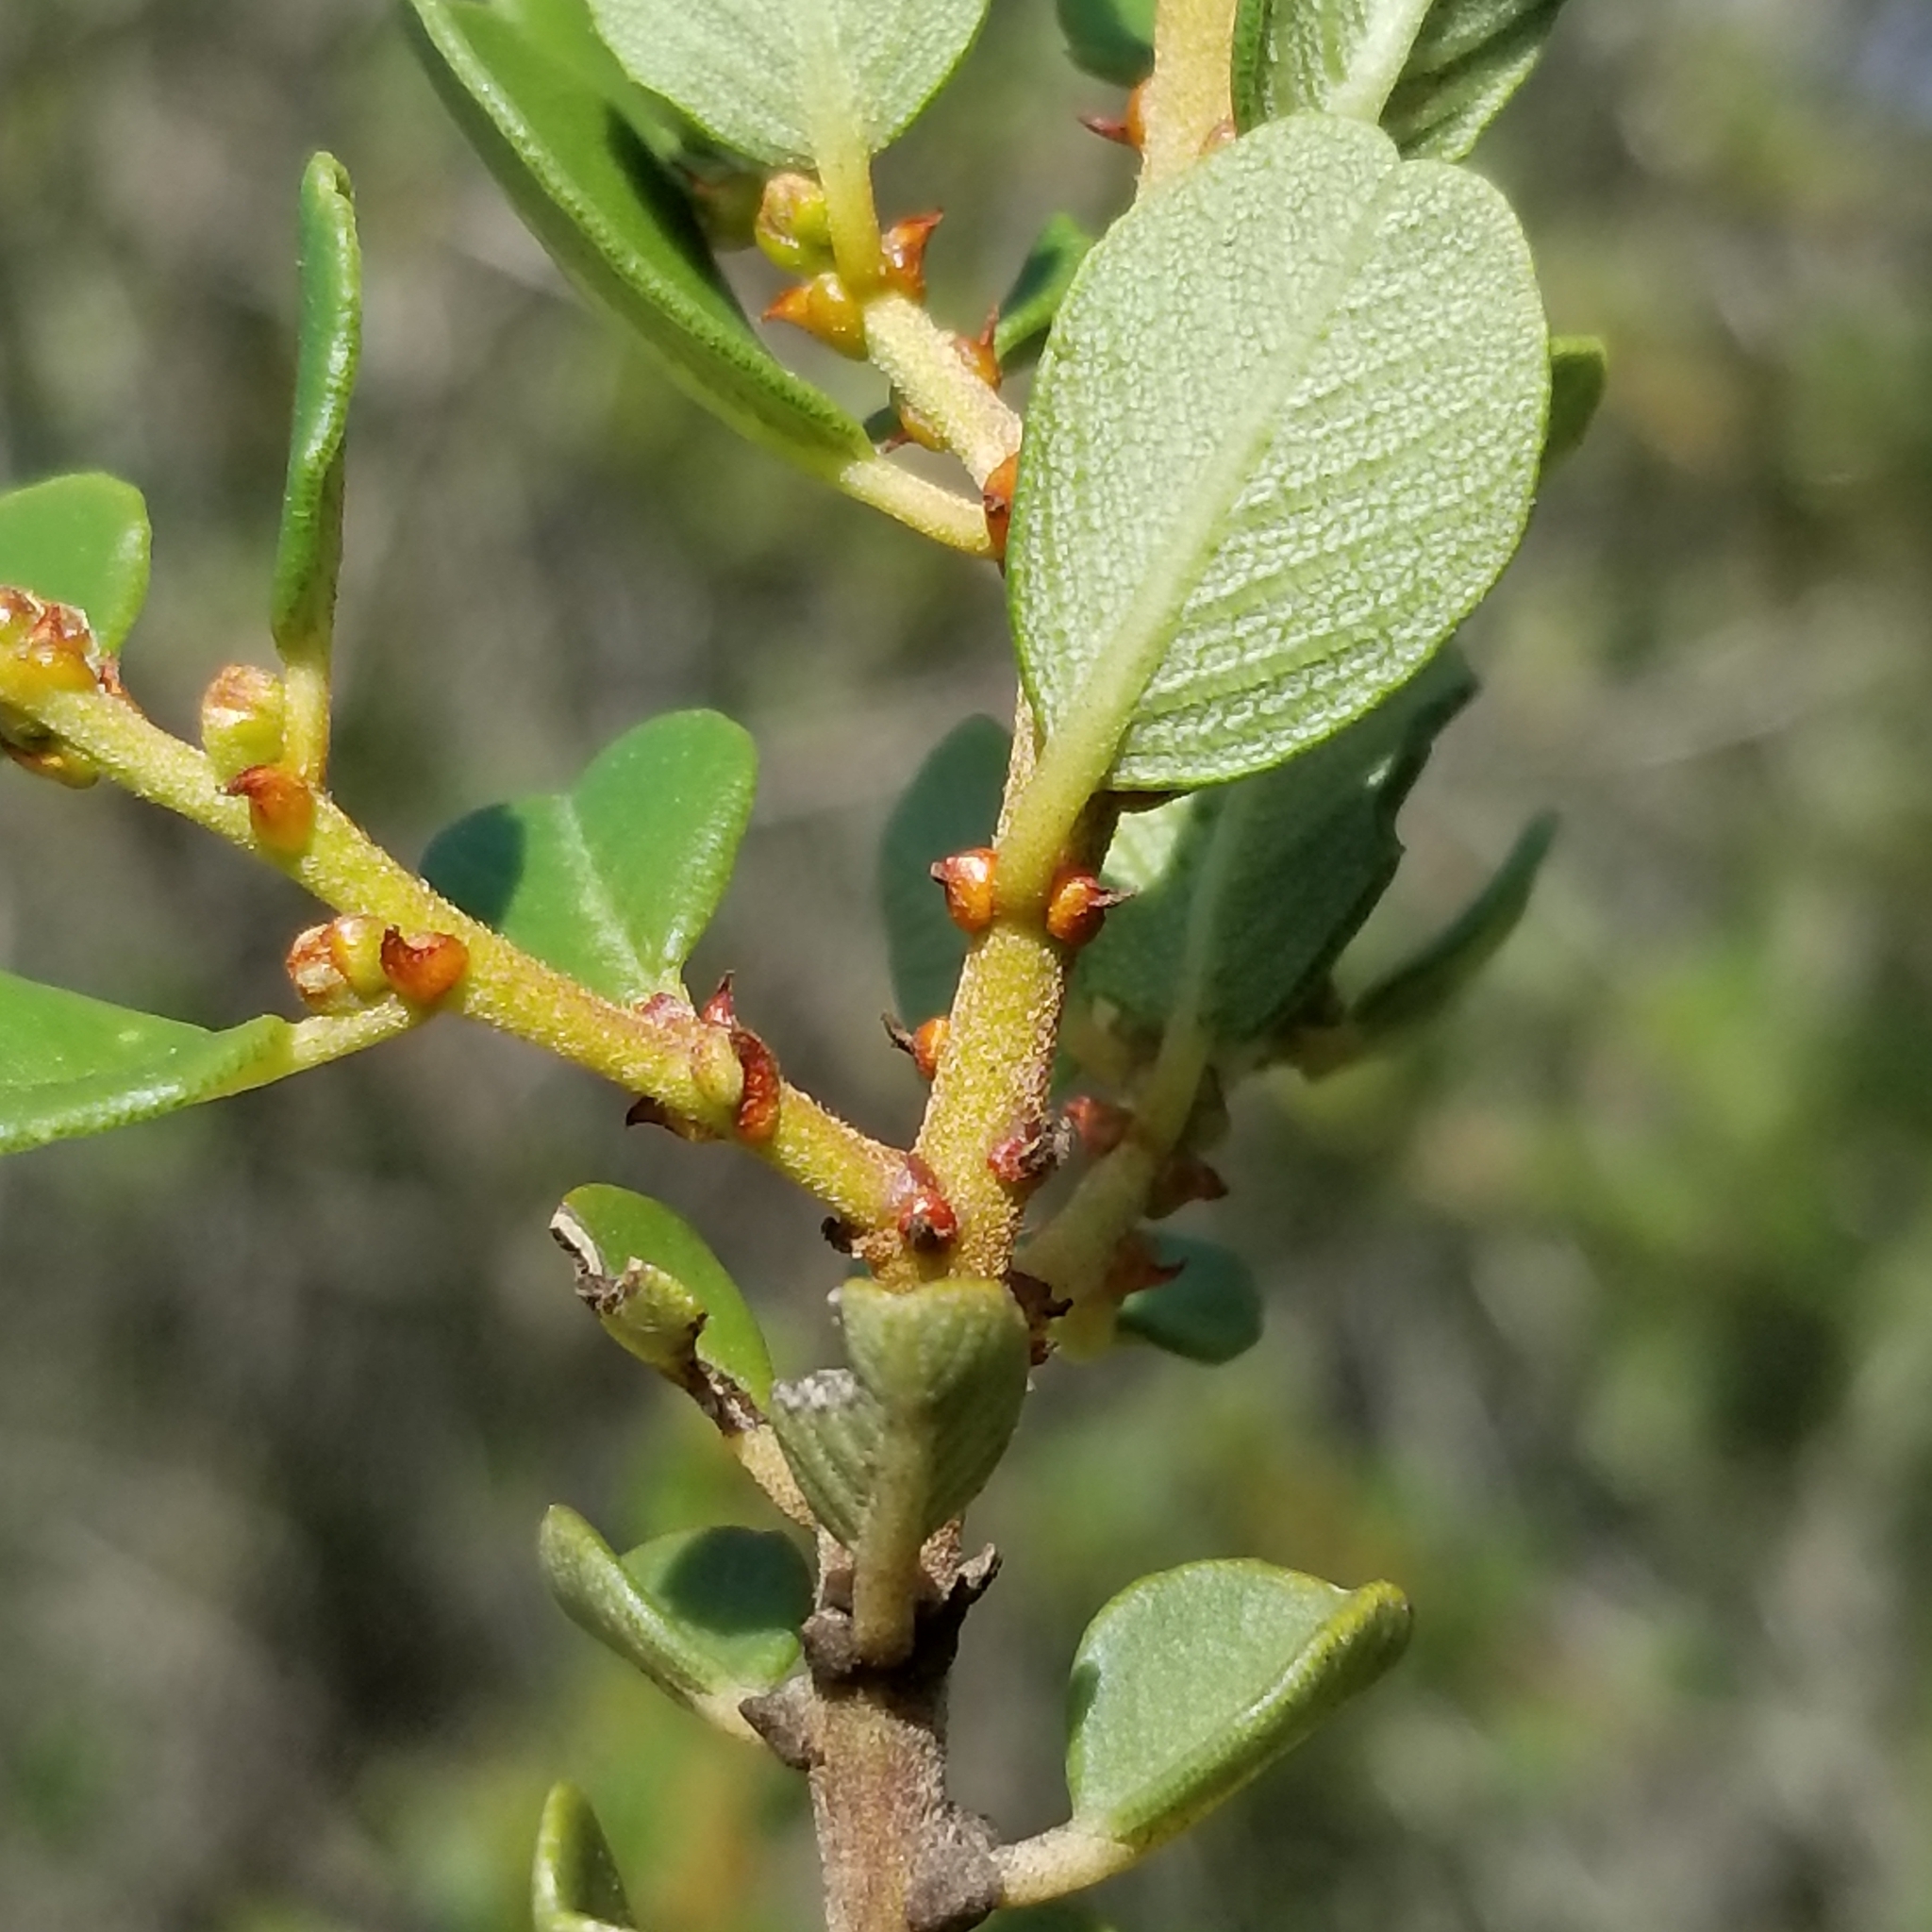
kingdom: Plantae
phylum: Tracheophyta
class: Magnoliopsida
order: Rosales
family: Rhamnaceae
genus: Ceanothus
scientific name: Ceanothus verrucosus
